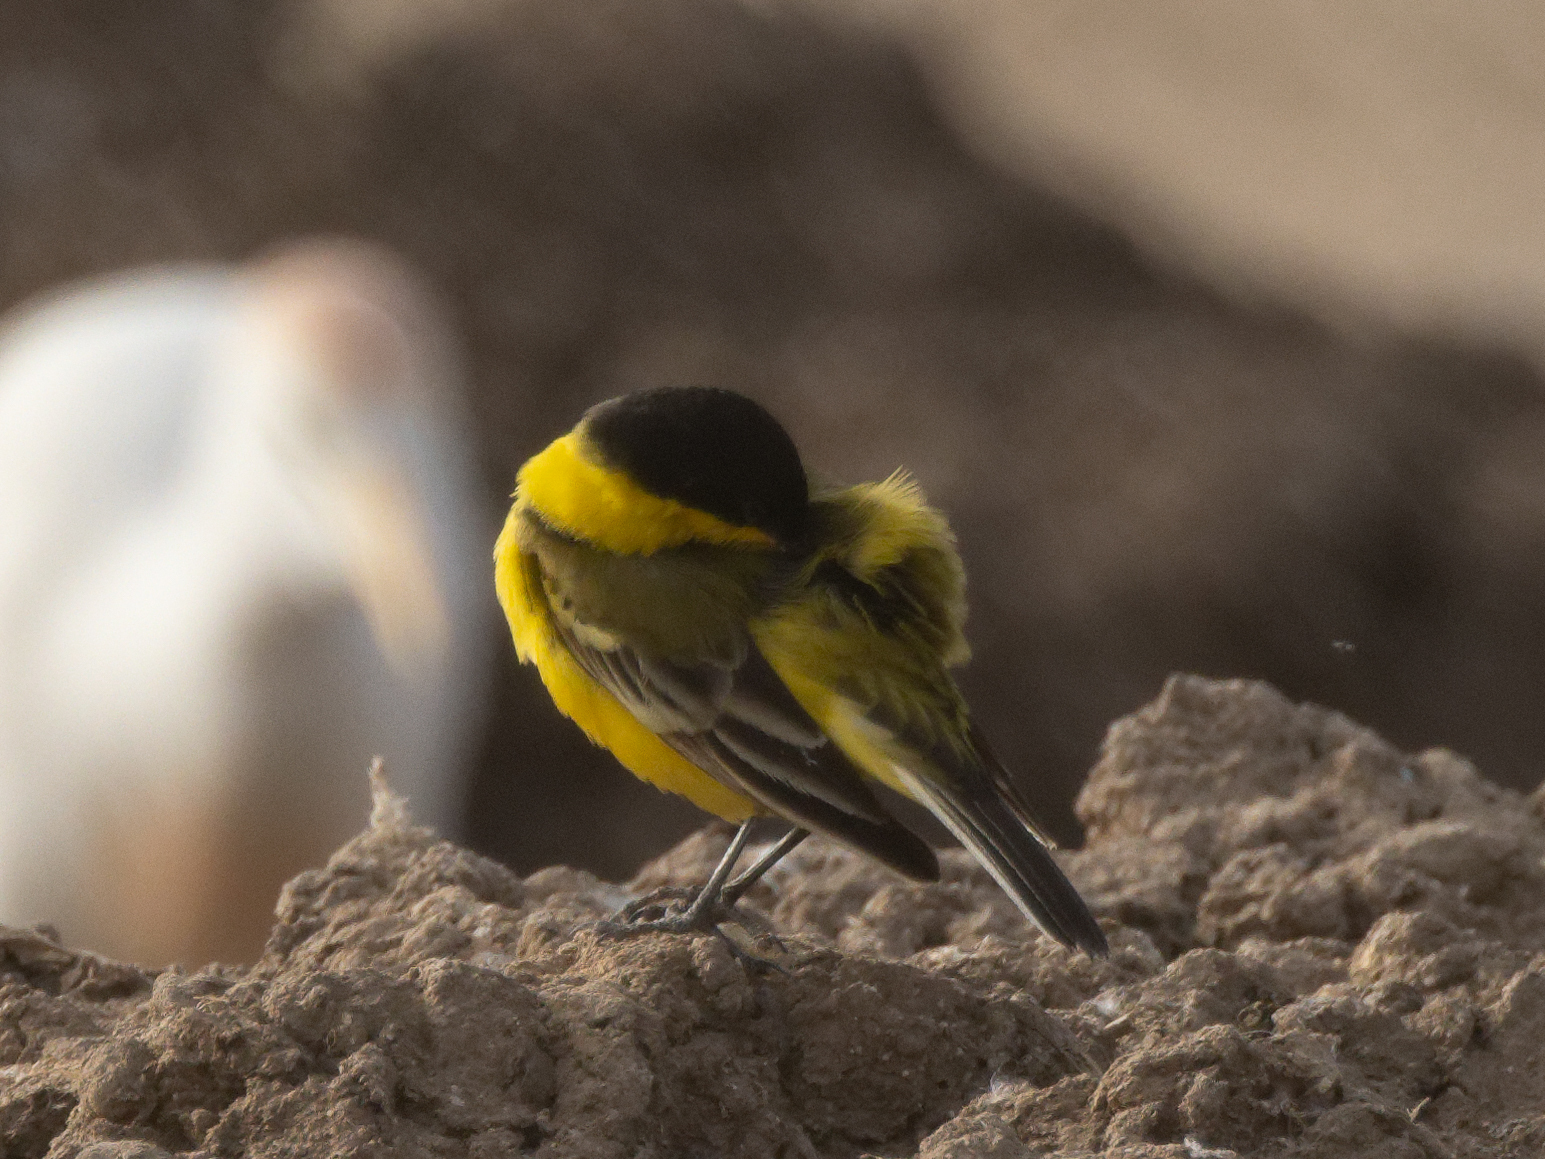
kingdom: Animalia
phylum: Chordata
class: Aves
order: Passeriformes
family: Motacillidae
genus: Motacilla
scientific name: Motacilla flava
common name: Western yellow wagtail
